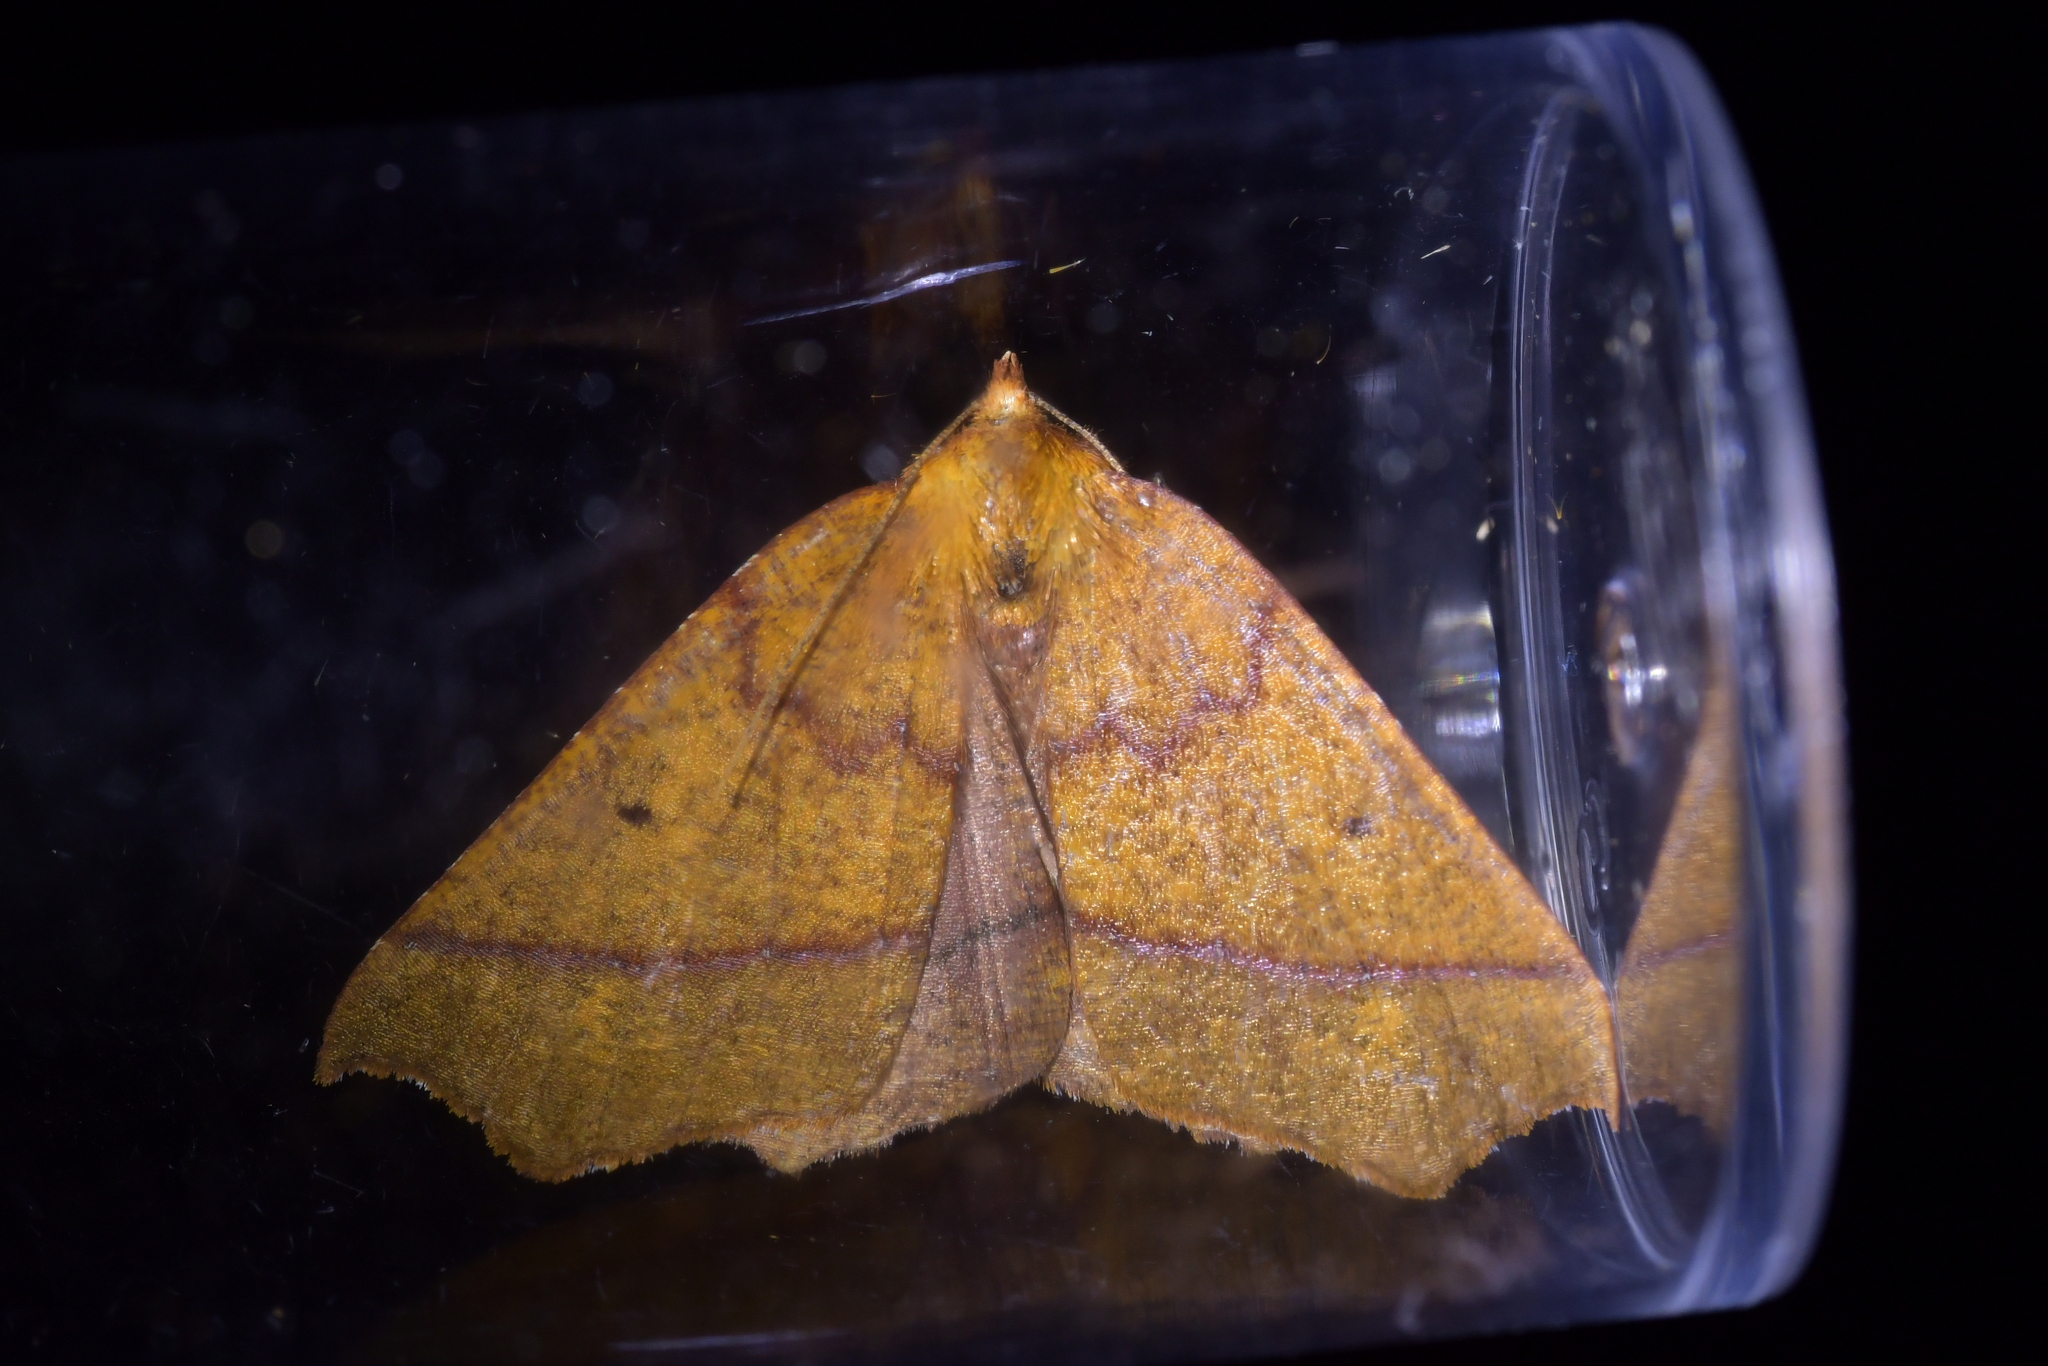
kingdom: Animalia
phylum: Arthropoda
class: Insecta
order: Lepidoptera
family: Geometridae
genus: Ischalis
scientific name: Ischalis nelsonaria
